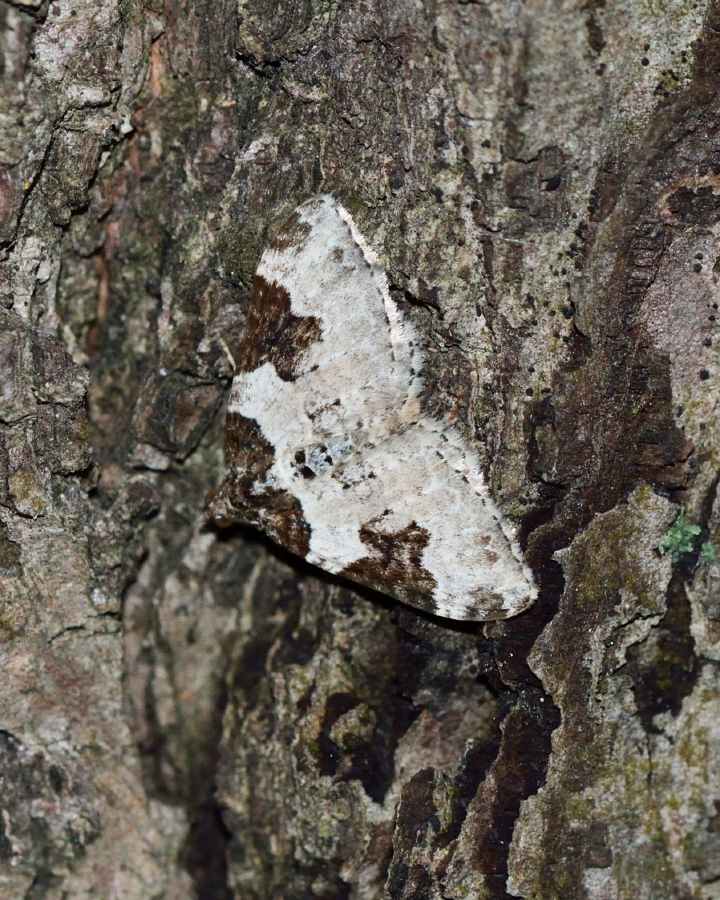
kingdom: Animalia
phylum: Arthropoda
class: Insecta
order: Lepidoptera
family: Geometridae
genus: Xanthorhoe
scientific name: Xanthorhoe fluctuata
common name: Garden carpet
